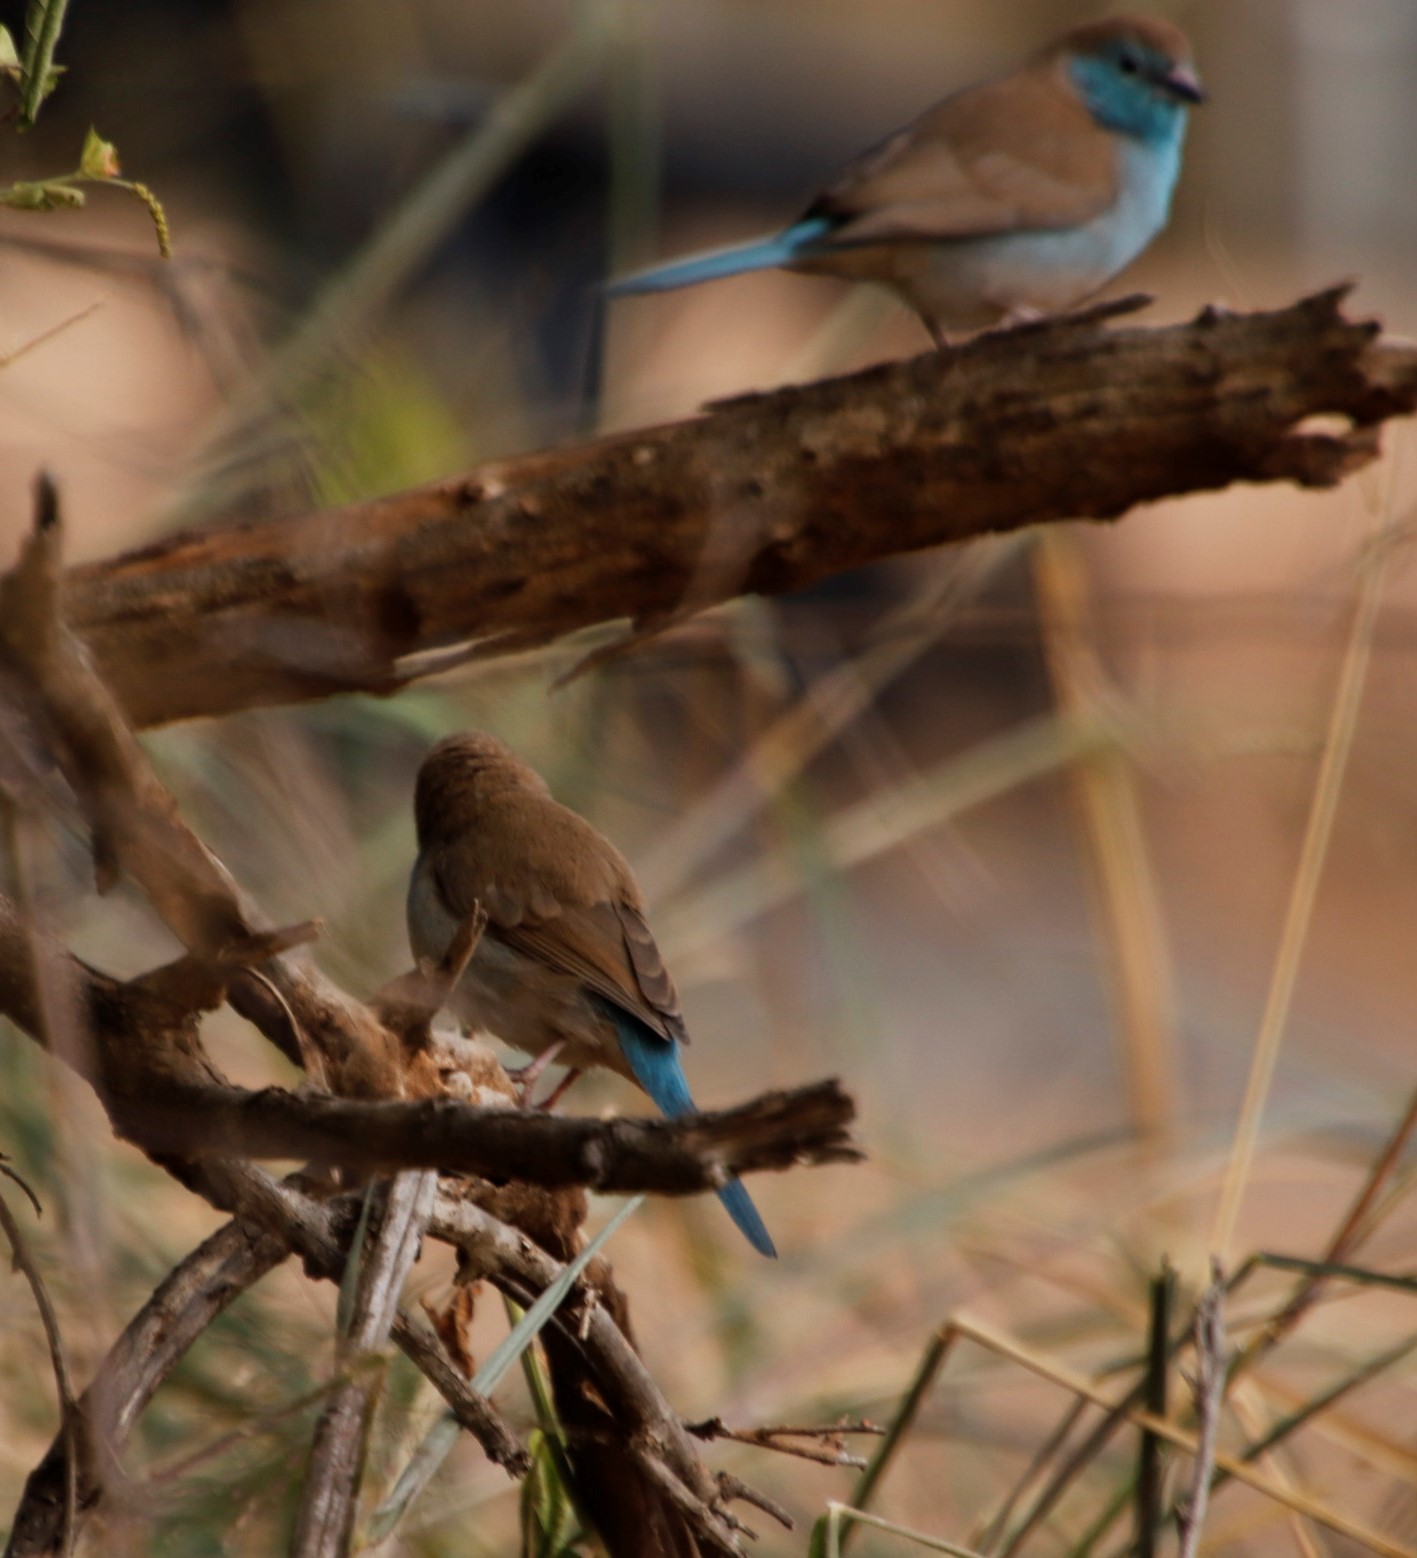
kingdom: Animalia
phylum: Chordata
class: Aves
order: Passeriformes
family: Estrildidae
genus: Uraeginthus
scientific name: Uraeginthus angolensis
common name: Blue waxbill
